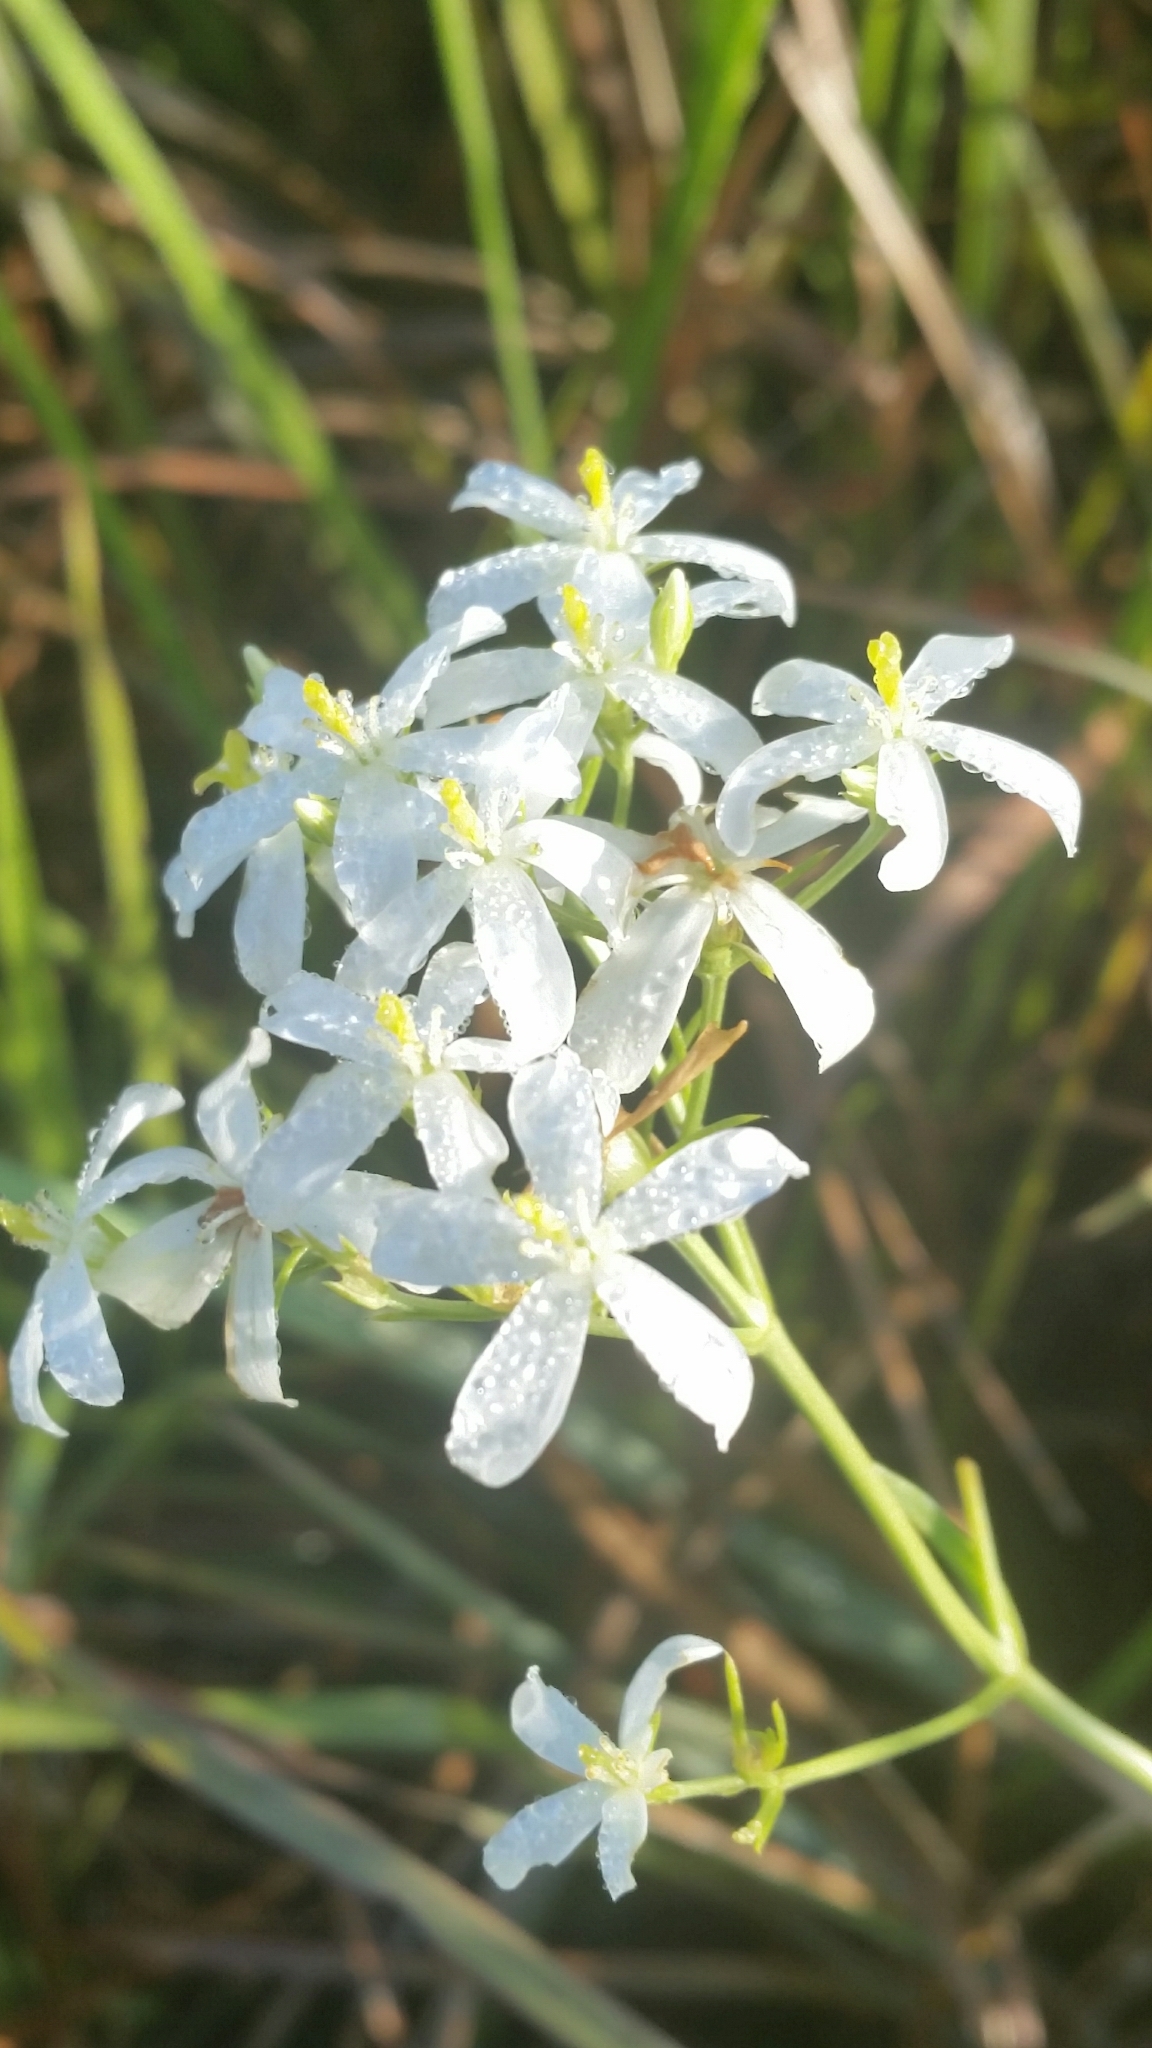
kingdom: Plantae
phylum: Tracheophyta
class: Magnoliopsida
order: Gentianales
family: Gentianaceae
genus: Sabatia
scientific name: Sabatia difformis
